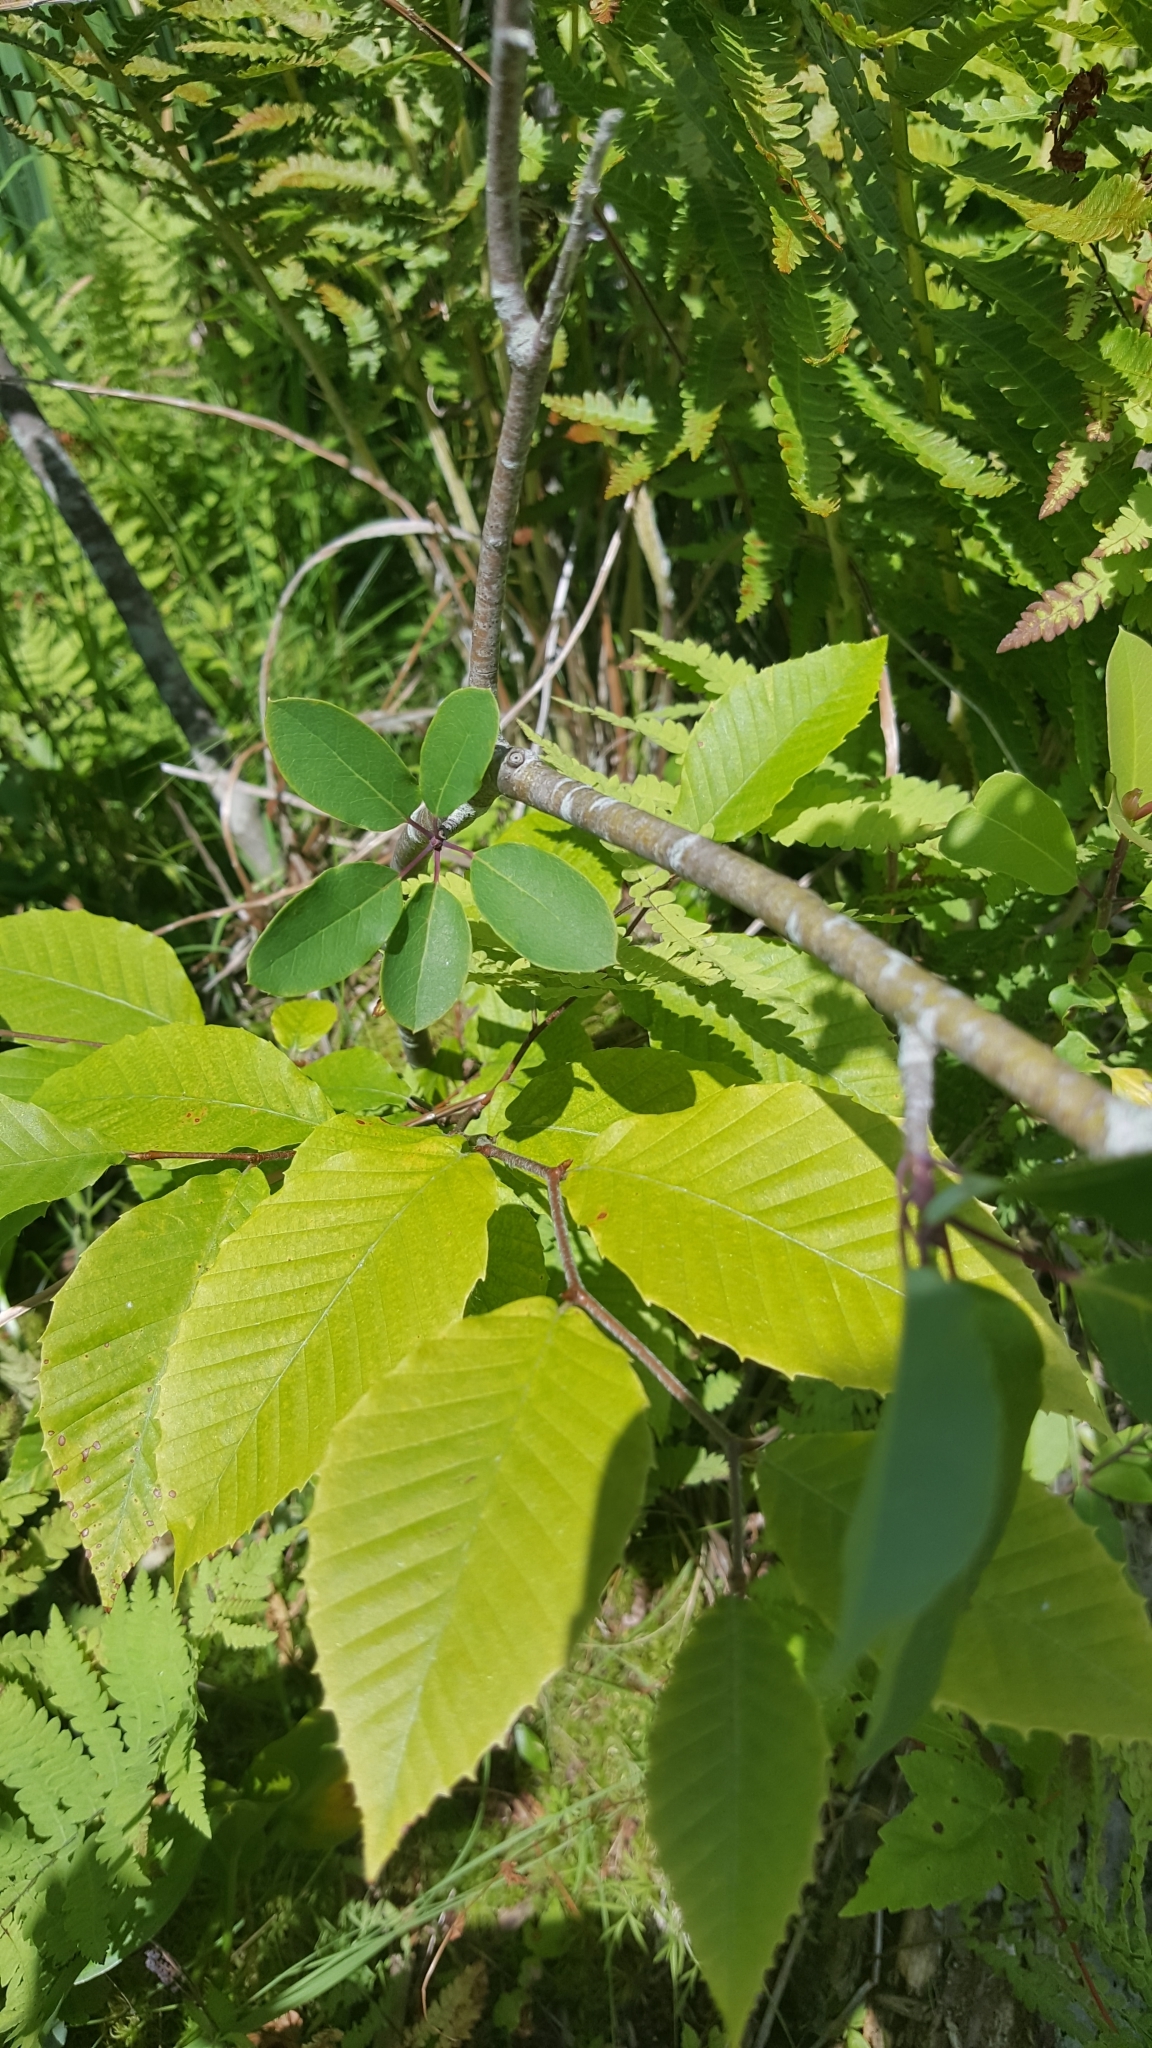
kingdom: Plantae
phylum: Tracheophyta
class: Magnoliopsida
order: Aquifoliales
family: Aquifoliaceae
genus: Ilex
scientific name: Ilex mucronata
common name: Catberry
